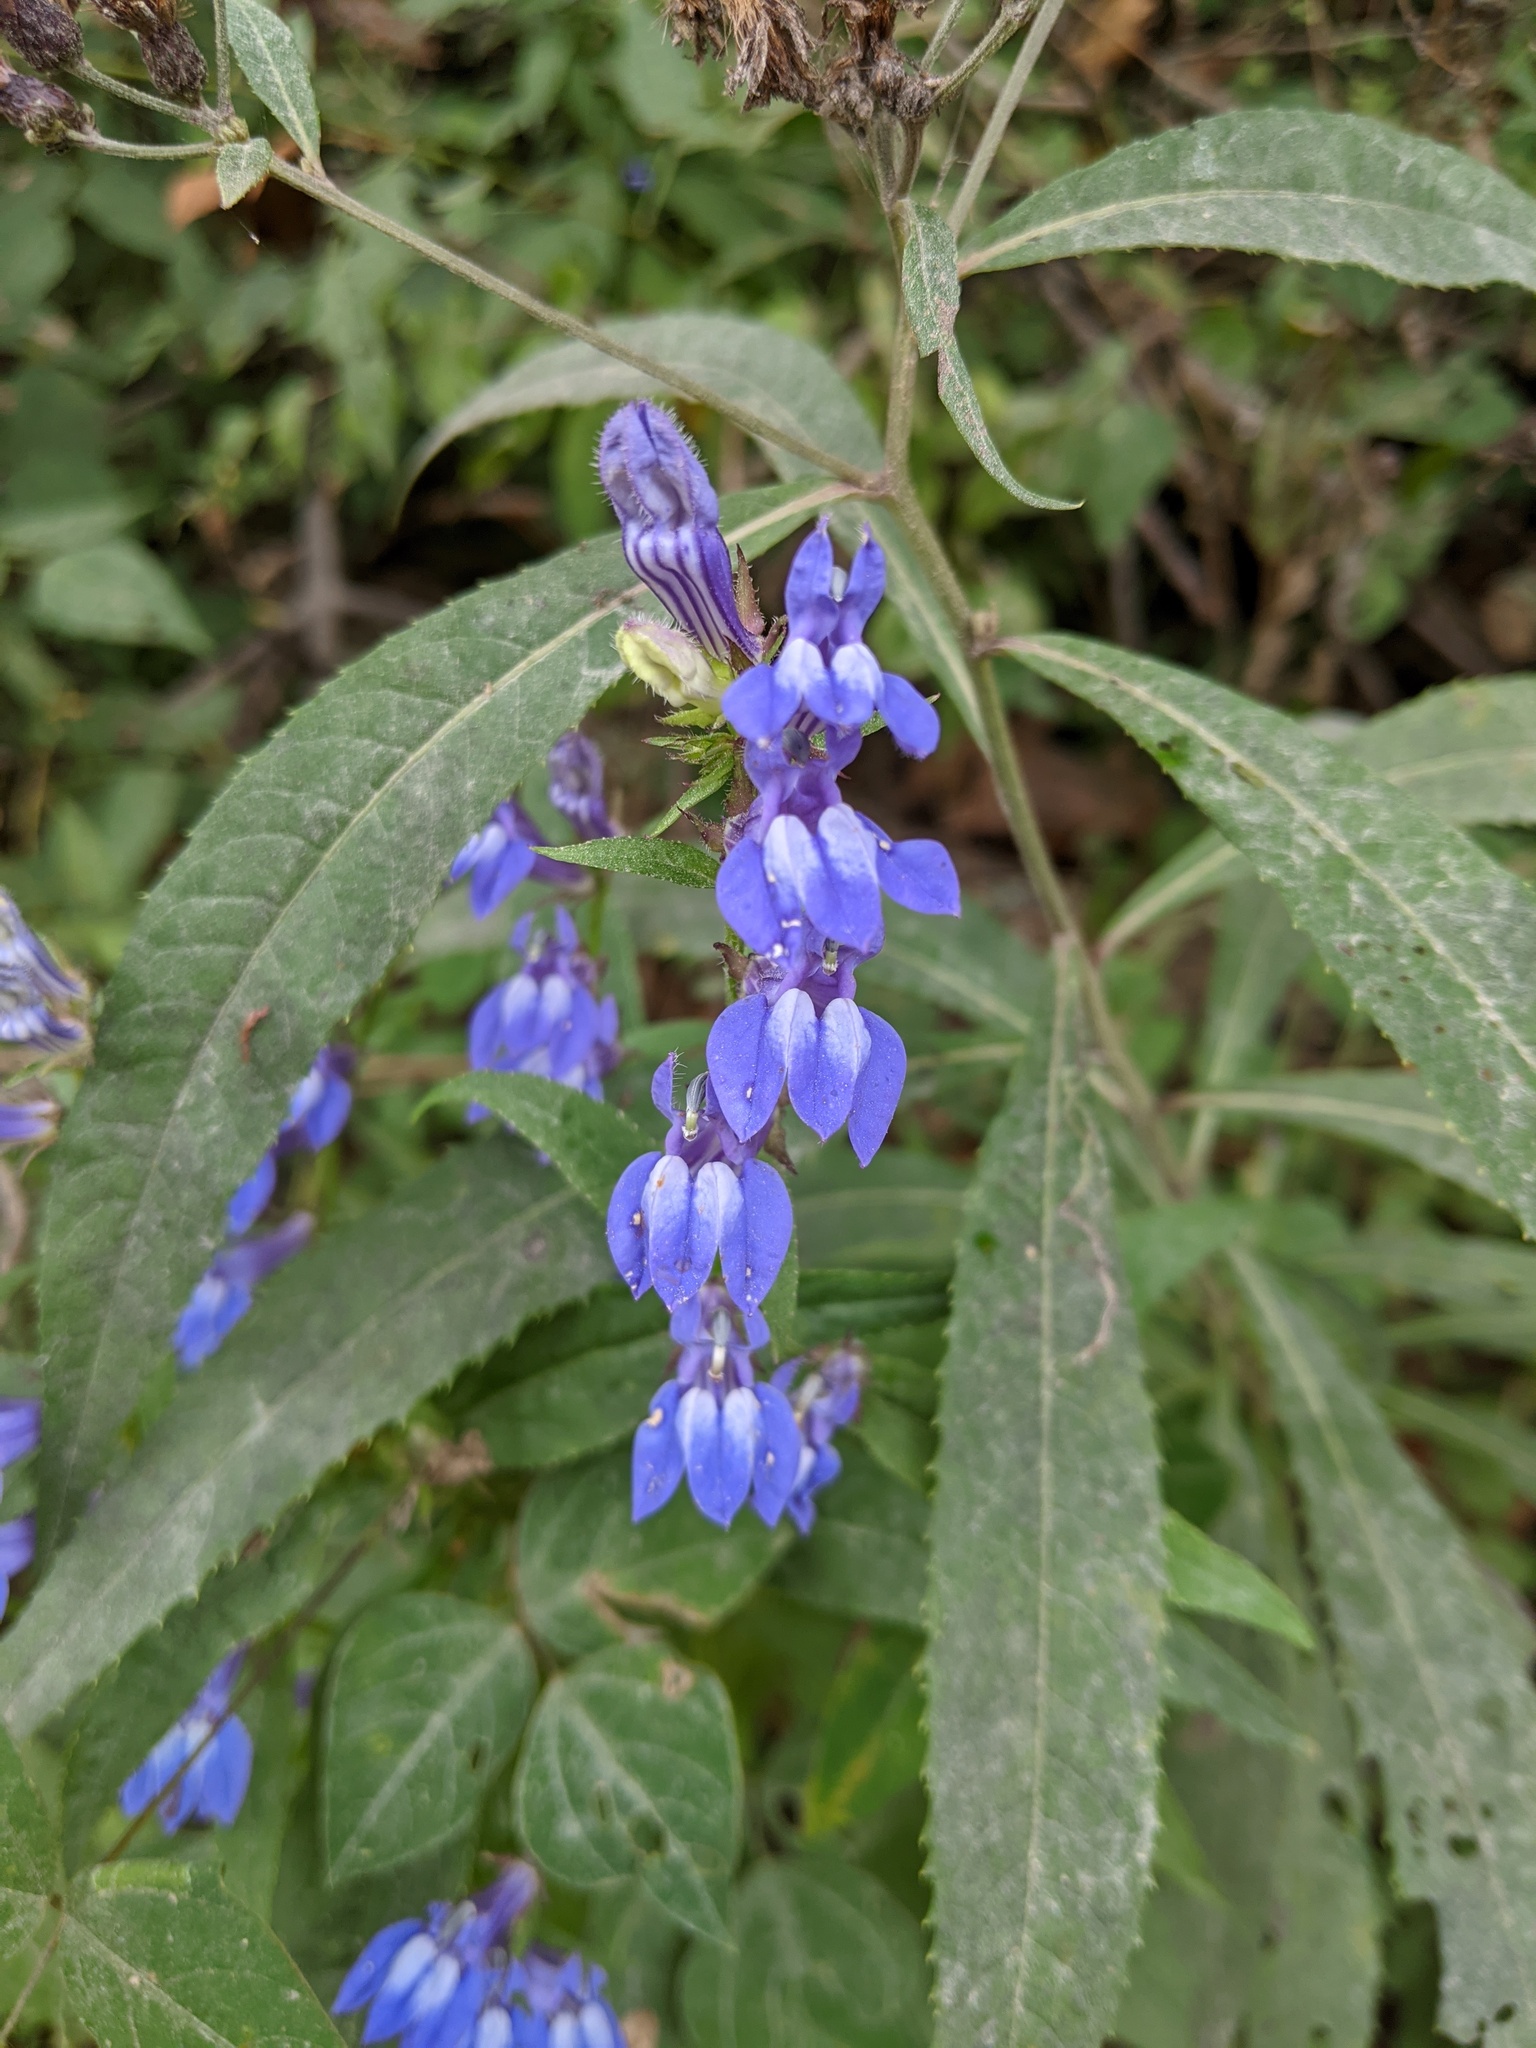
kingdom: Plantae
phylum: Tracheophyta
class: Magnoliopsida
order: Asterales
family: Campanulaceae
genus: Lobelia
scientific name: Lobelia siphilitica
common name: Great lobelia
